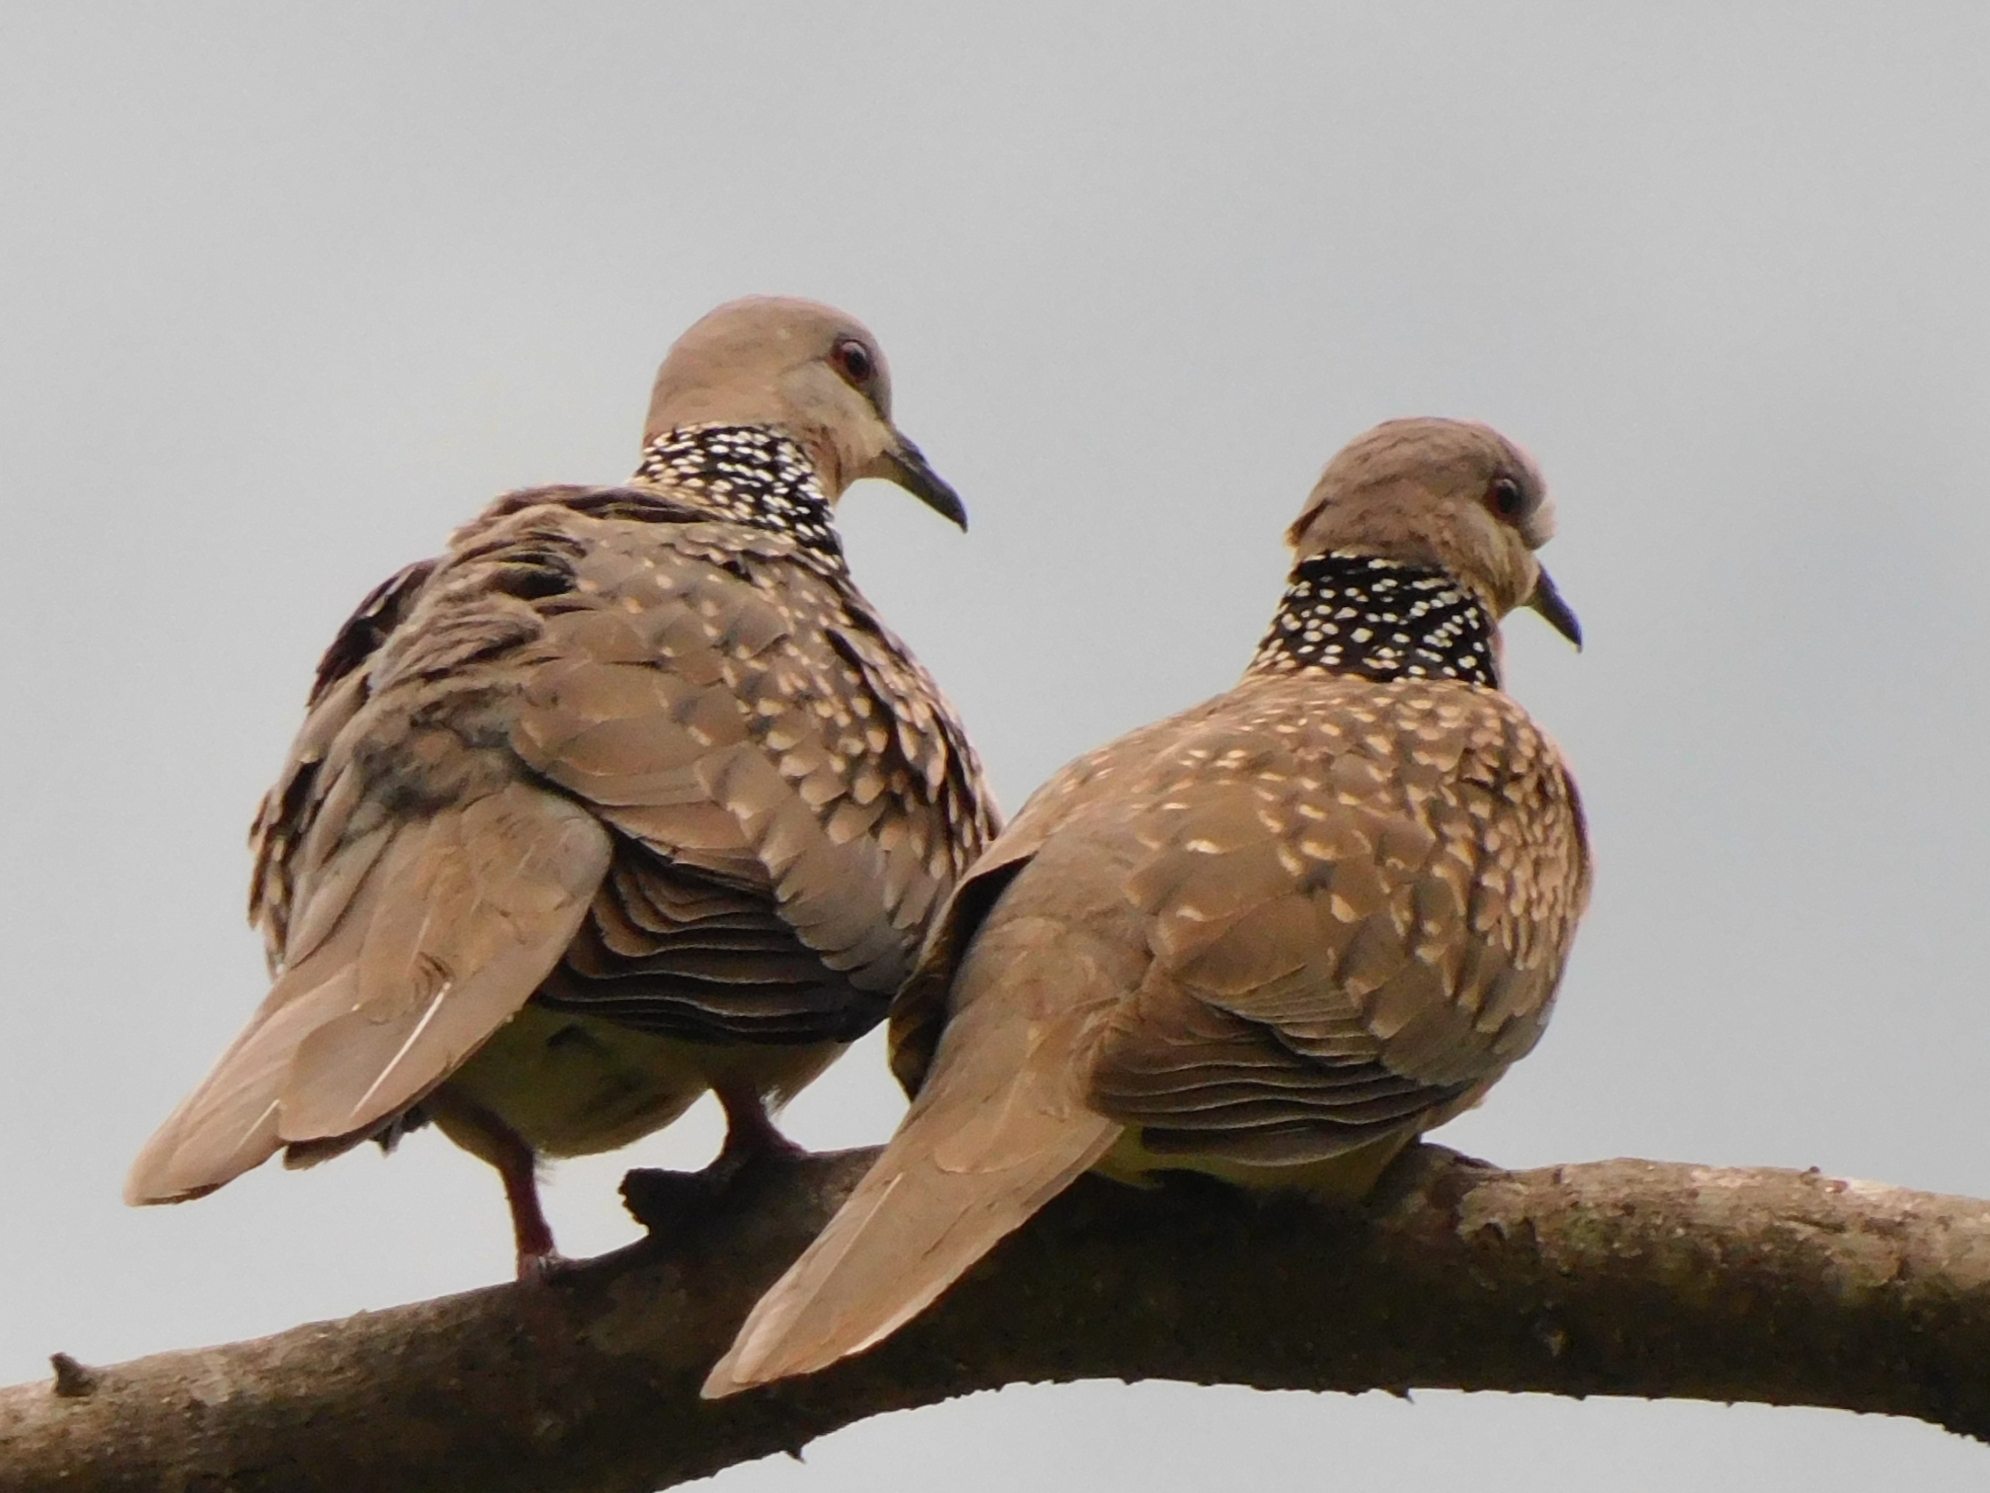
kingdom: Animalia
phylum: Chordata
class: Aves
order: Columbiformes
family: Columbidae
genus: Spilopelia
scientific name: Spilopelia chinensis
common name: Spotted dove
